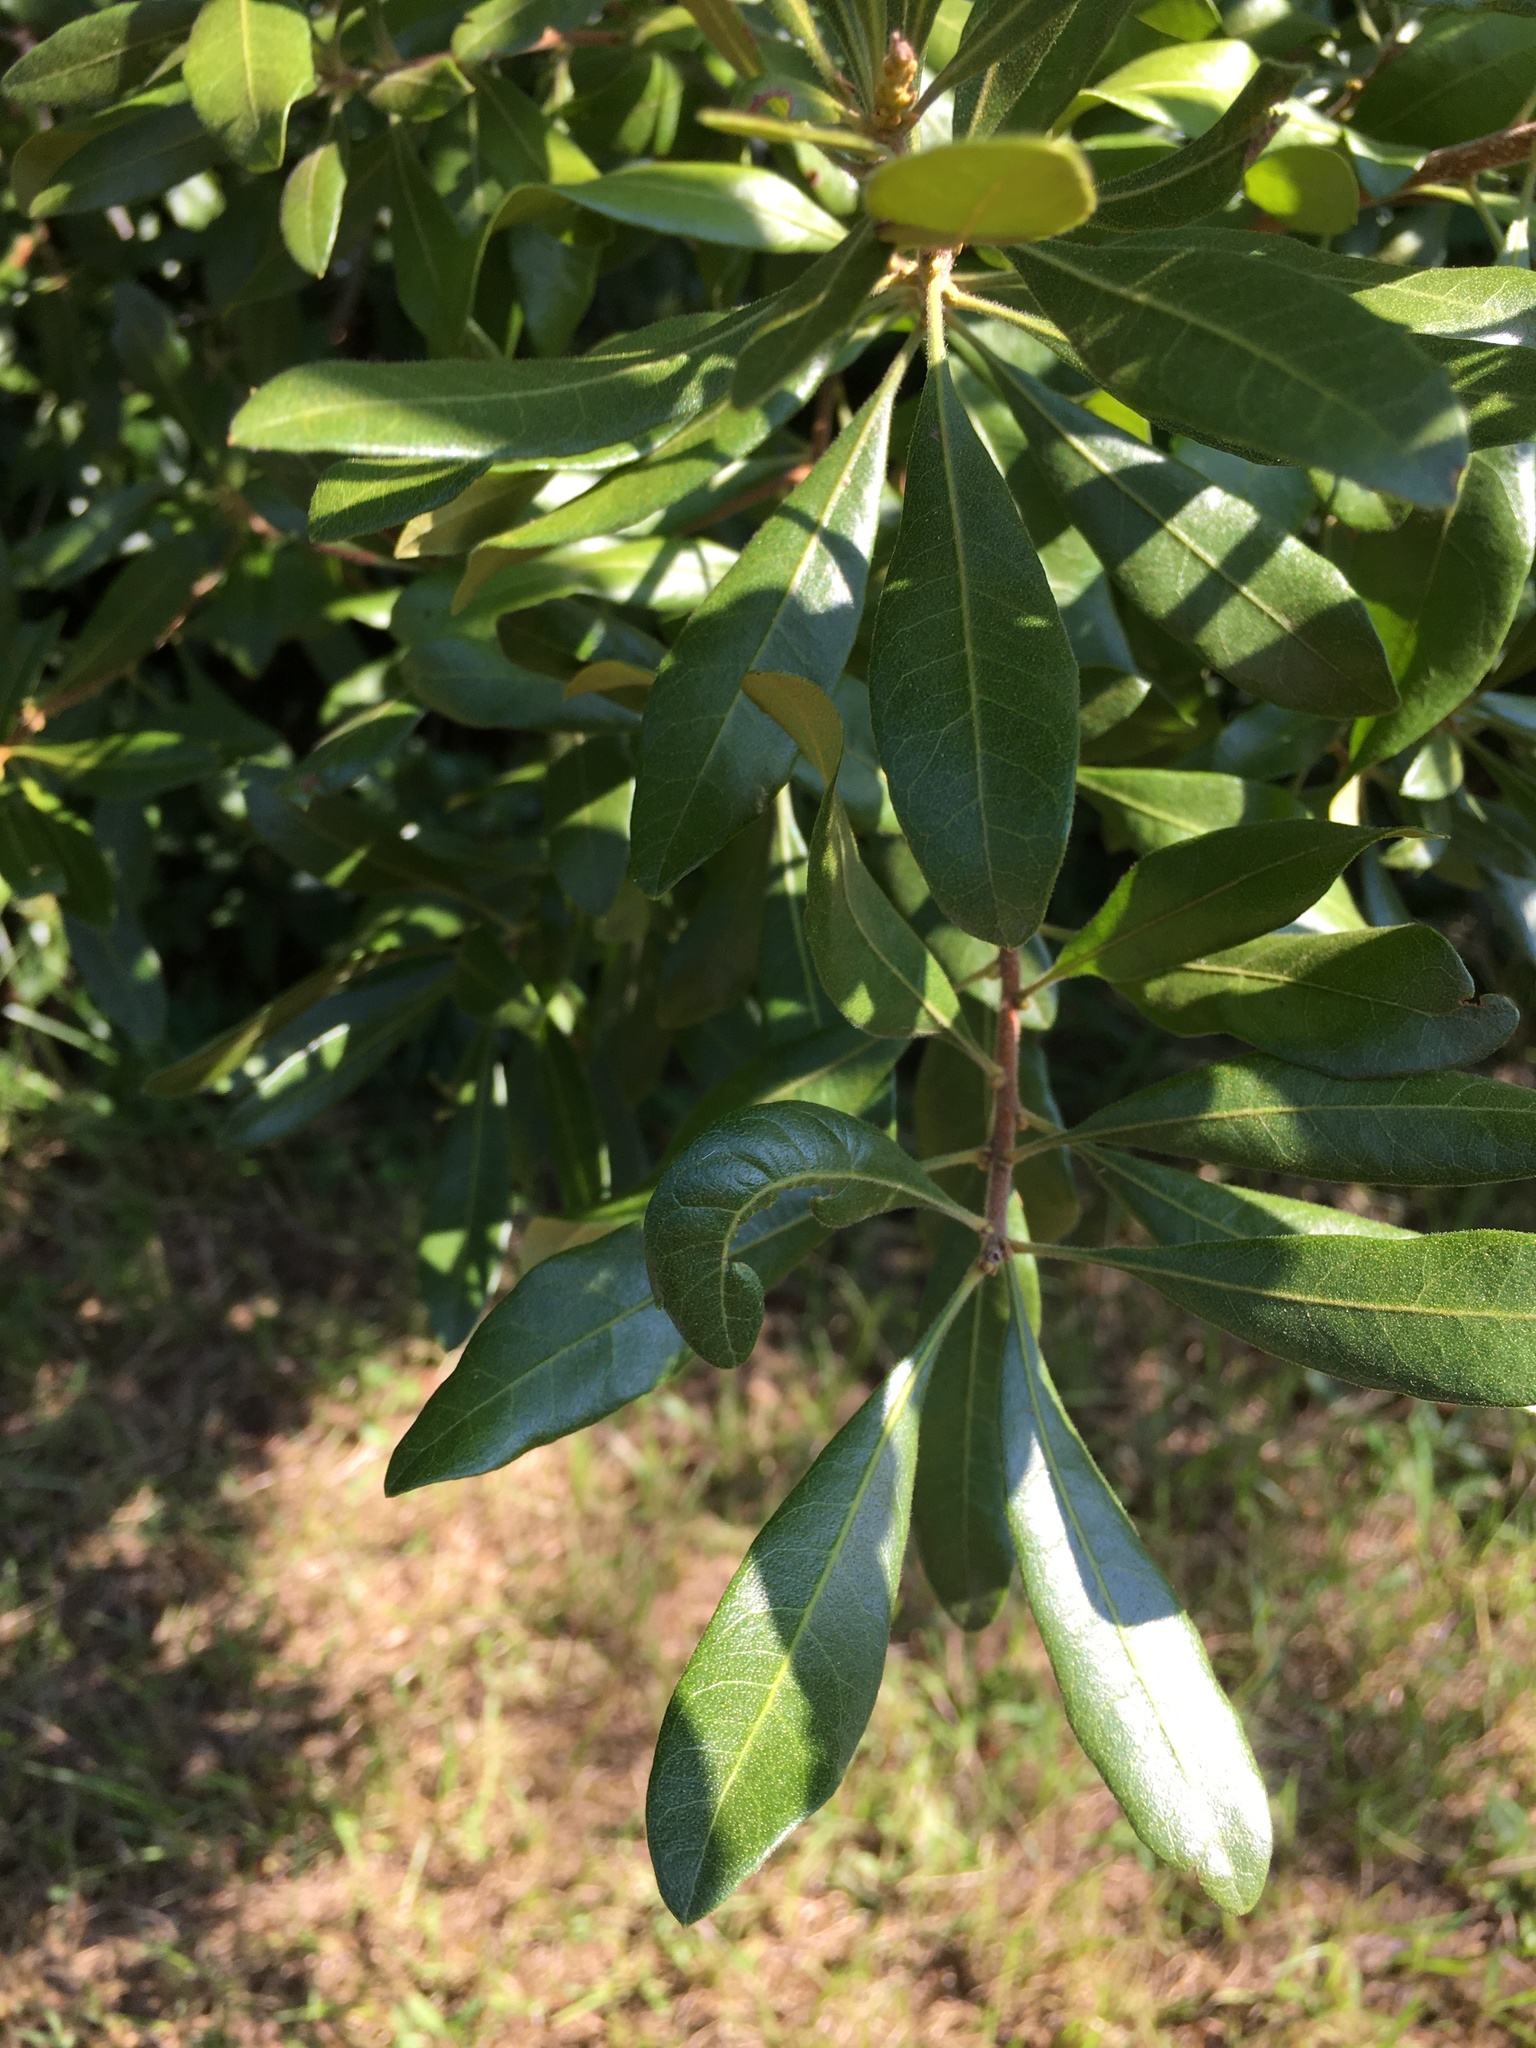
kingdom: Plantae
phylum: Tracheophyta
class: Magnoliopsida
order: Fagales
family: Myricaceae
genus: Morella
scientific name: Morella cerifera
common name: Wax myrtle
